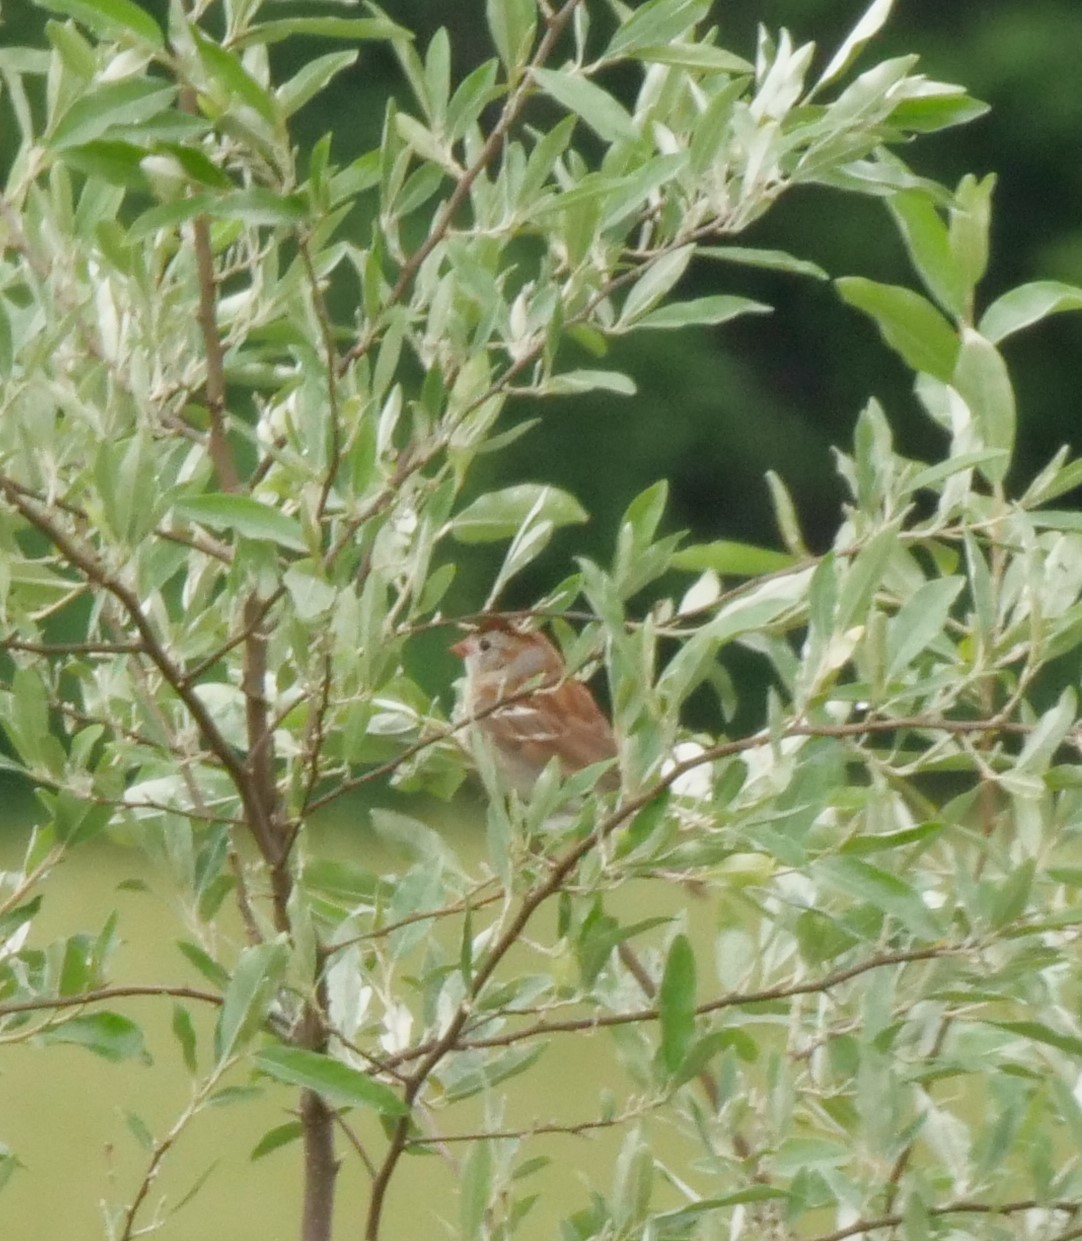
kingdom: Animalia
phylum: Chordata
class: Aves
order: Passeriformes
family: Passerellidae
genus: Spizella
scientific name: Spizella pusilla
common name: Field sparrow
